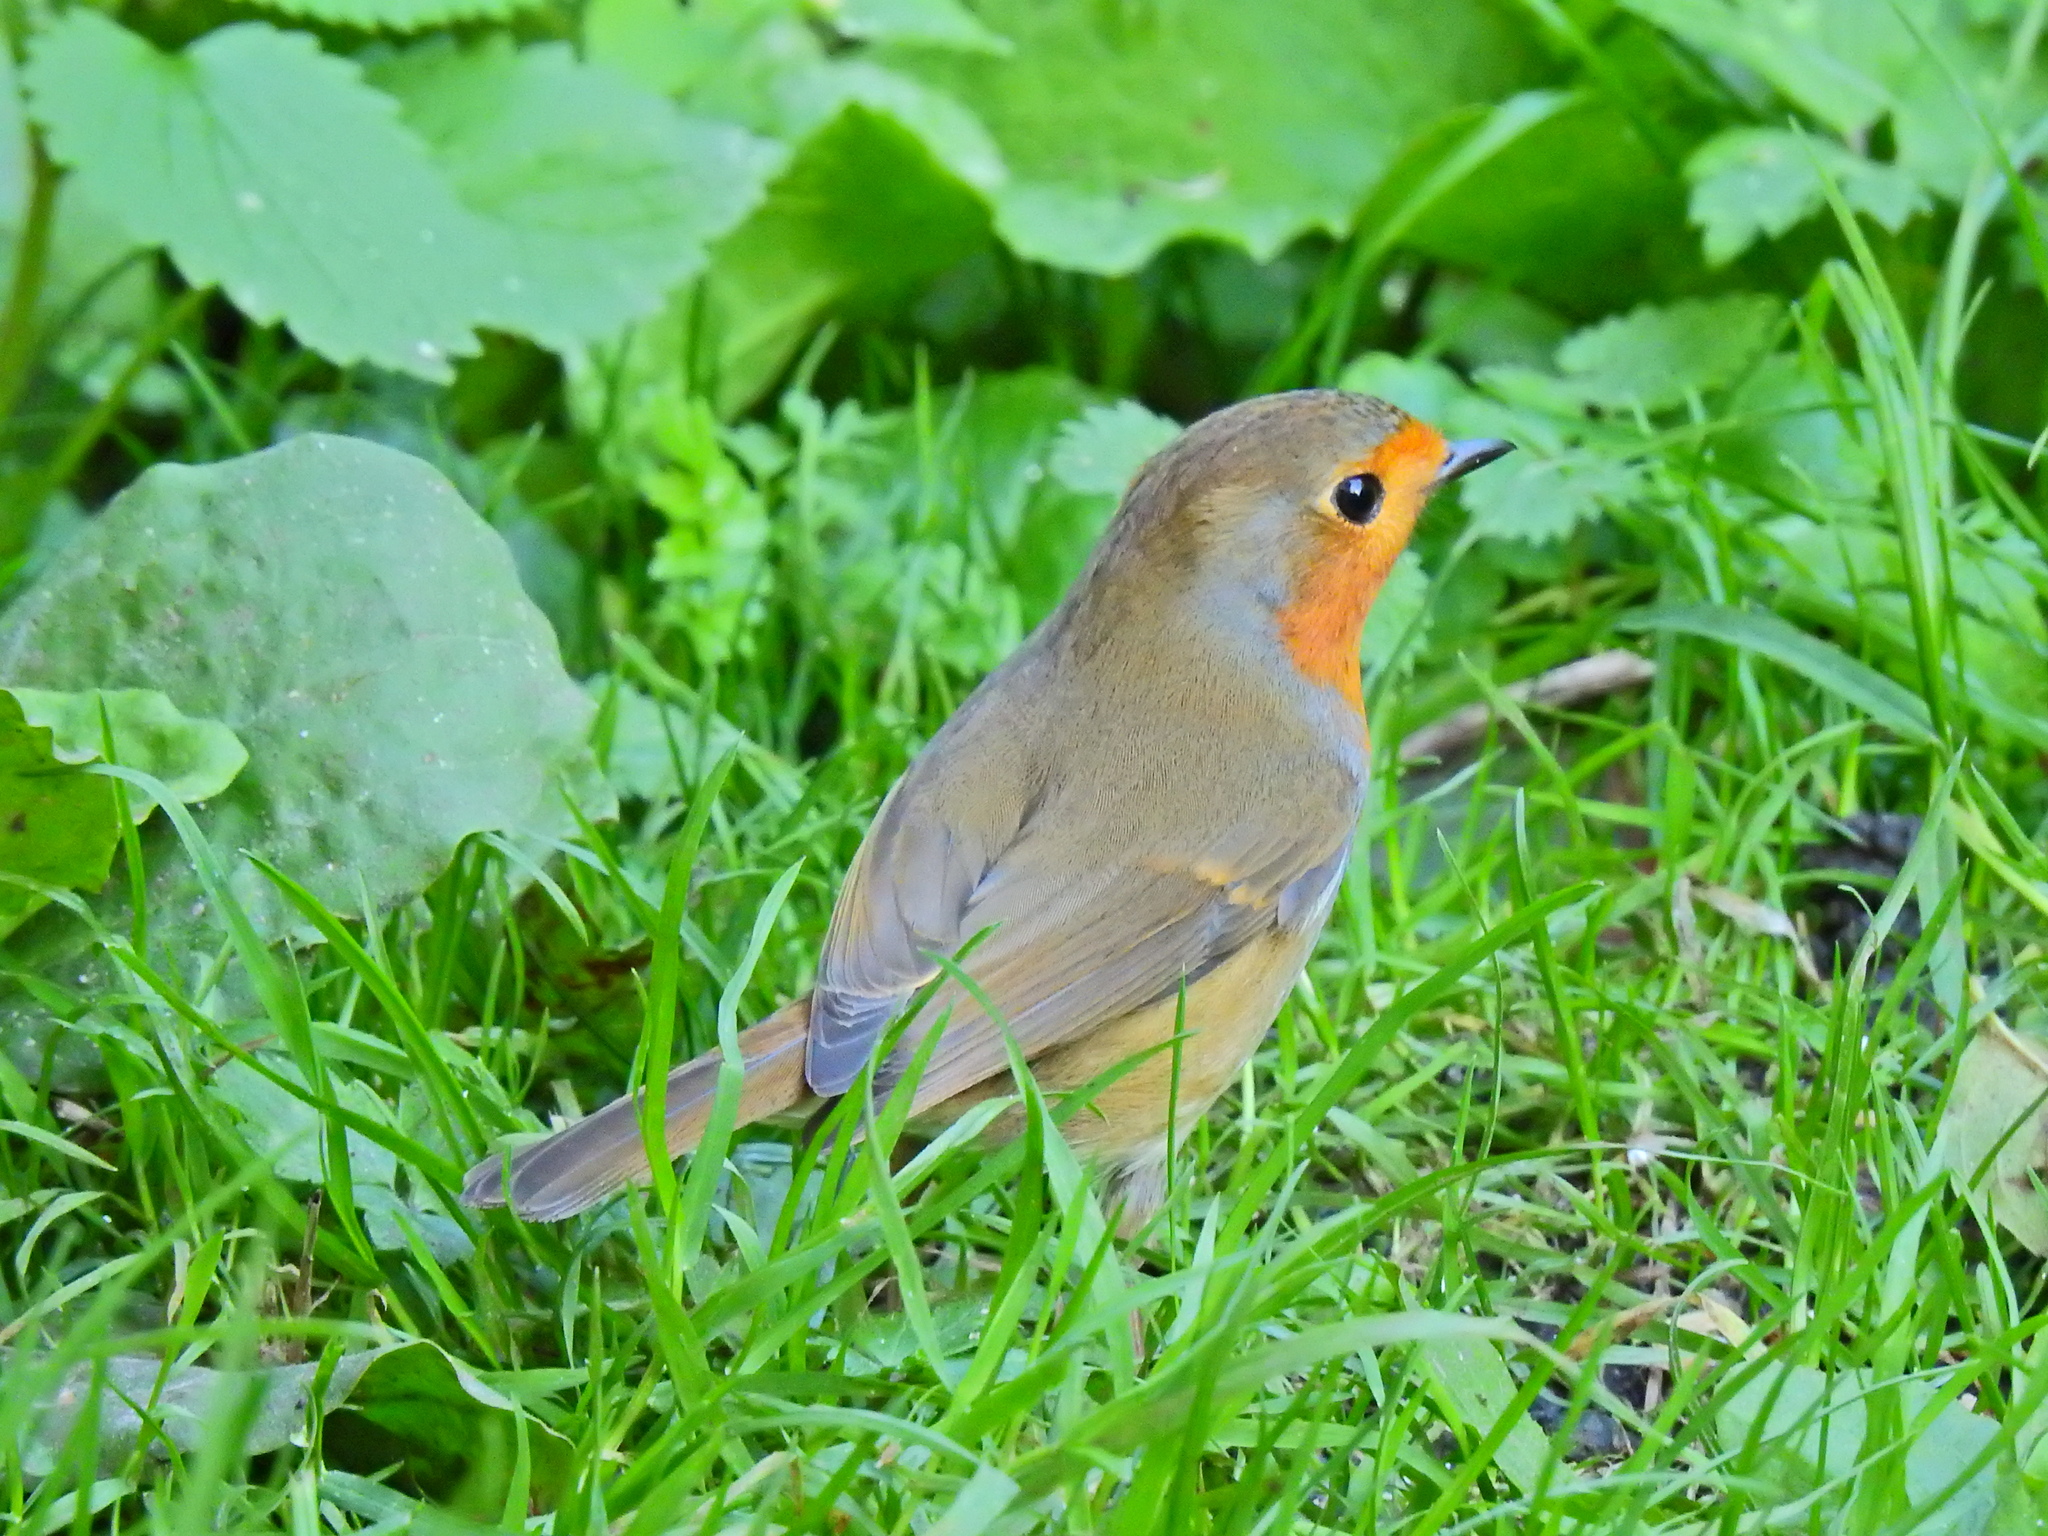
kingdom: Animalia
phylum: Chordata
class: Aves
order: Passeriformes
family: Muscicapidae
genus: Erithacus
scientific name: Erithacus rubecula
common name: European robin
